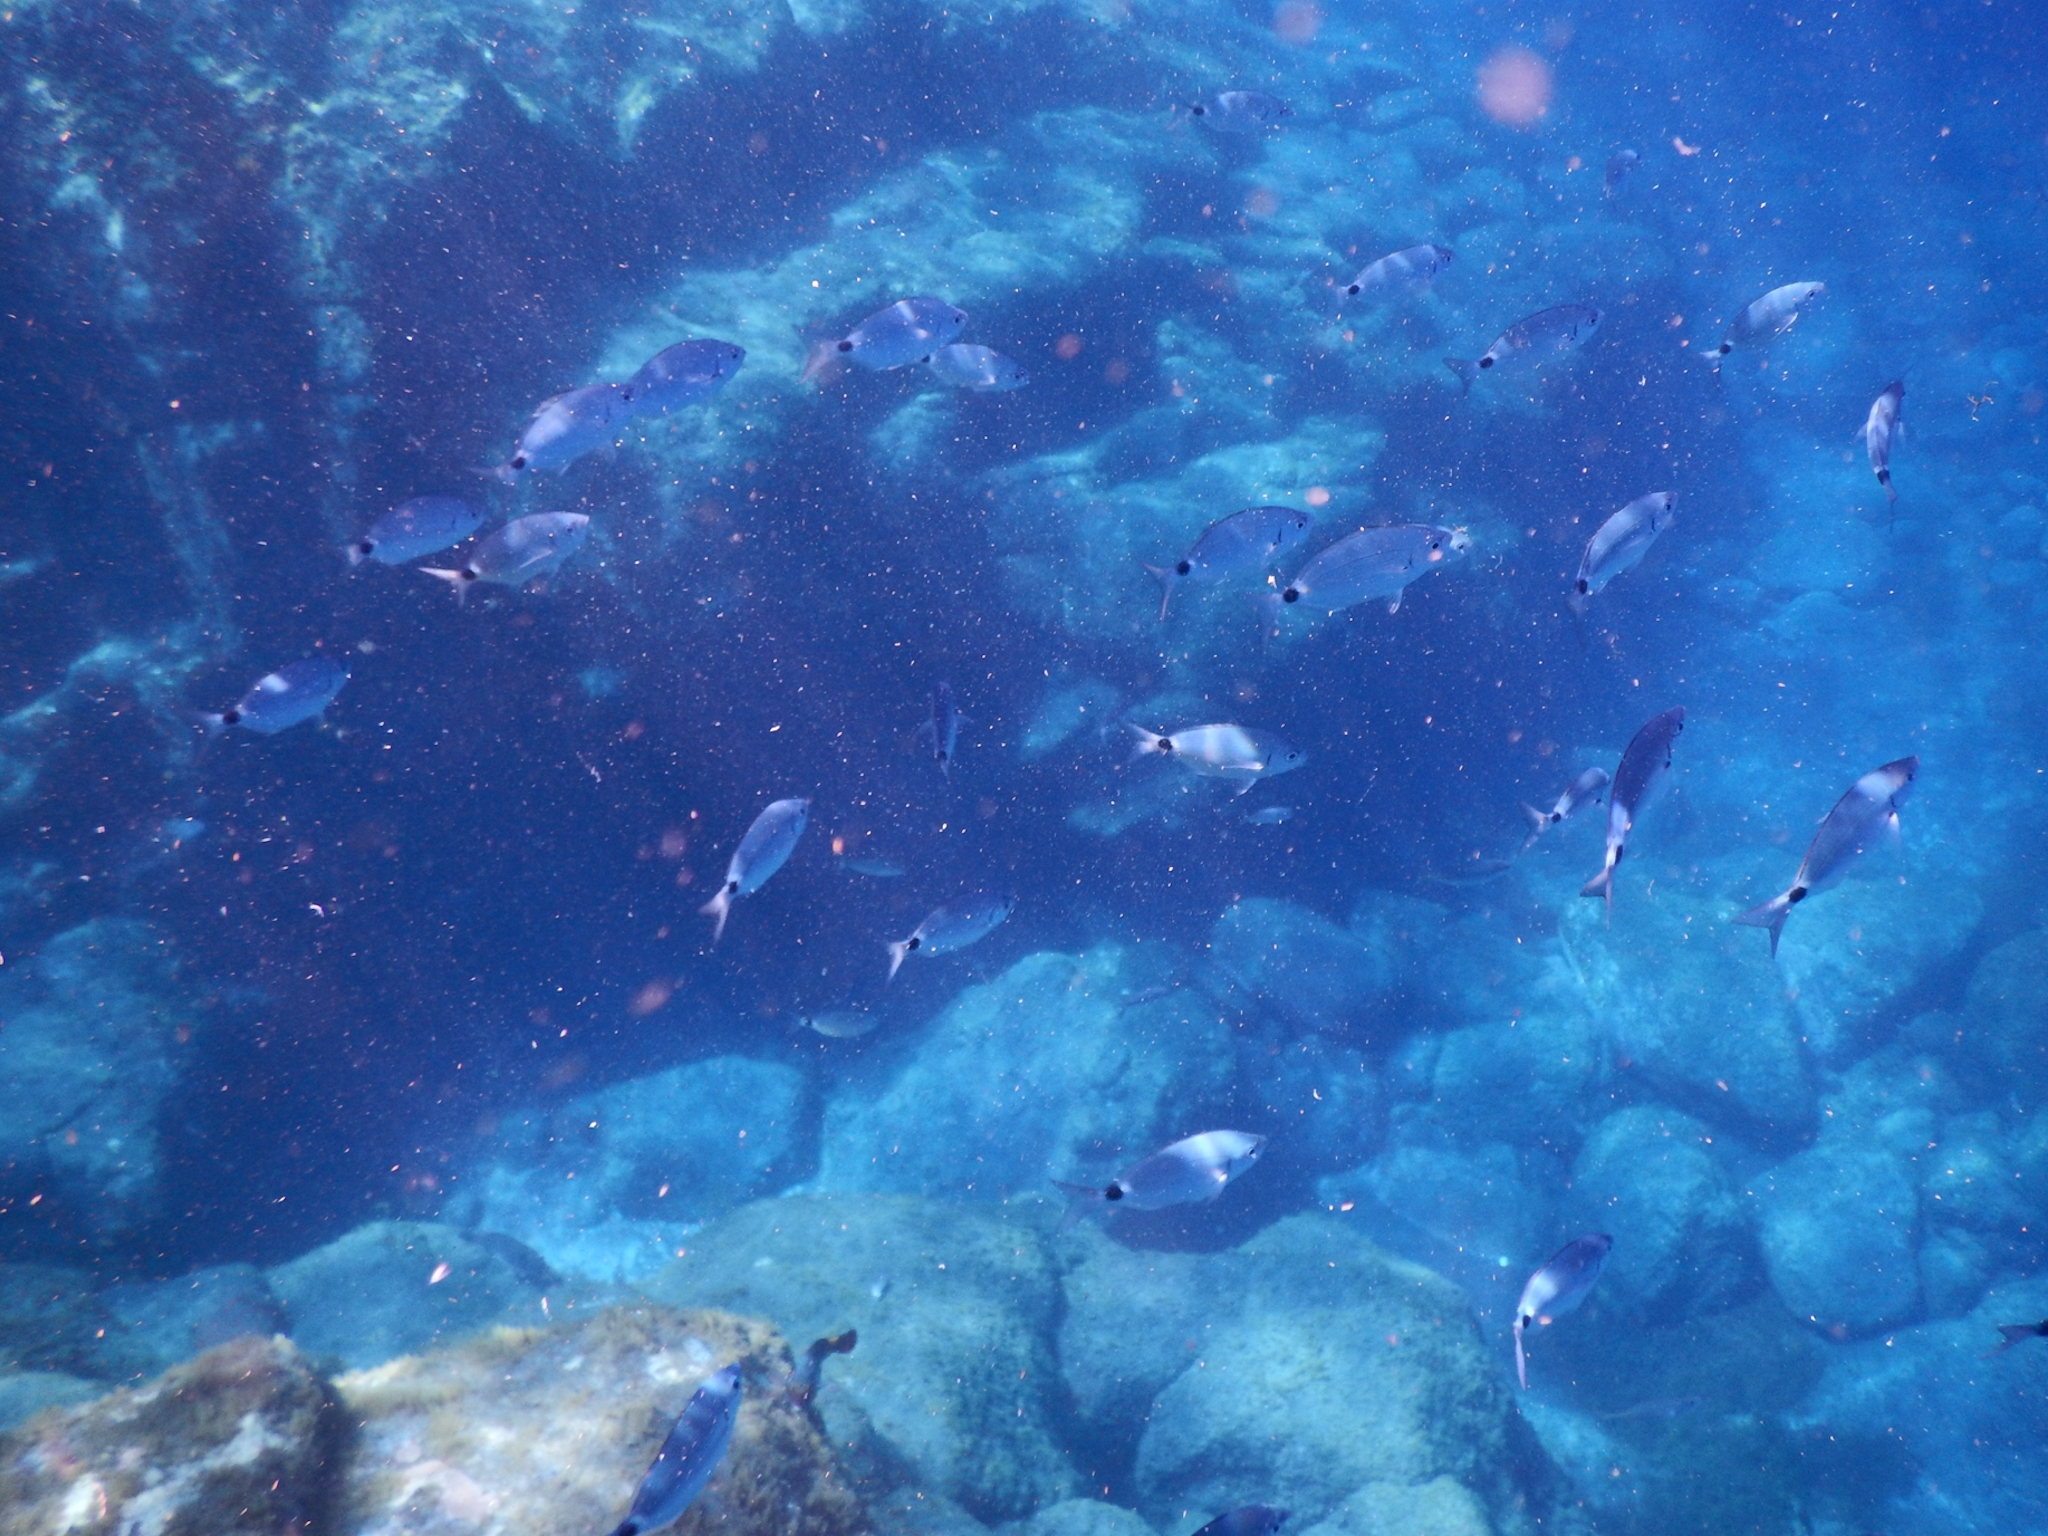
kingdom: Animalia
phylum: Chordata
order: Perciformes
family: Sparidae
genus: Oblada
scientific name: Oblada melanura
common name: Saddled seabream
